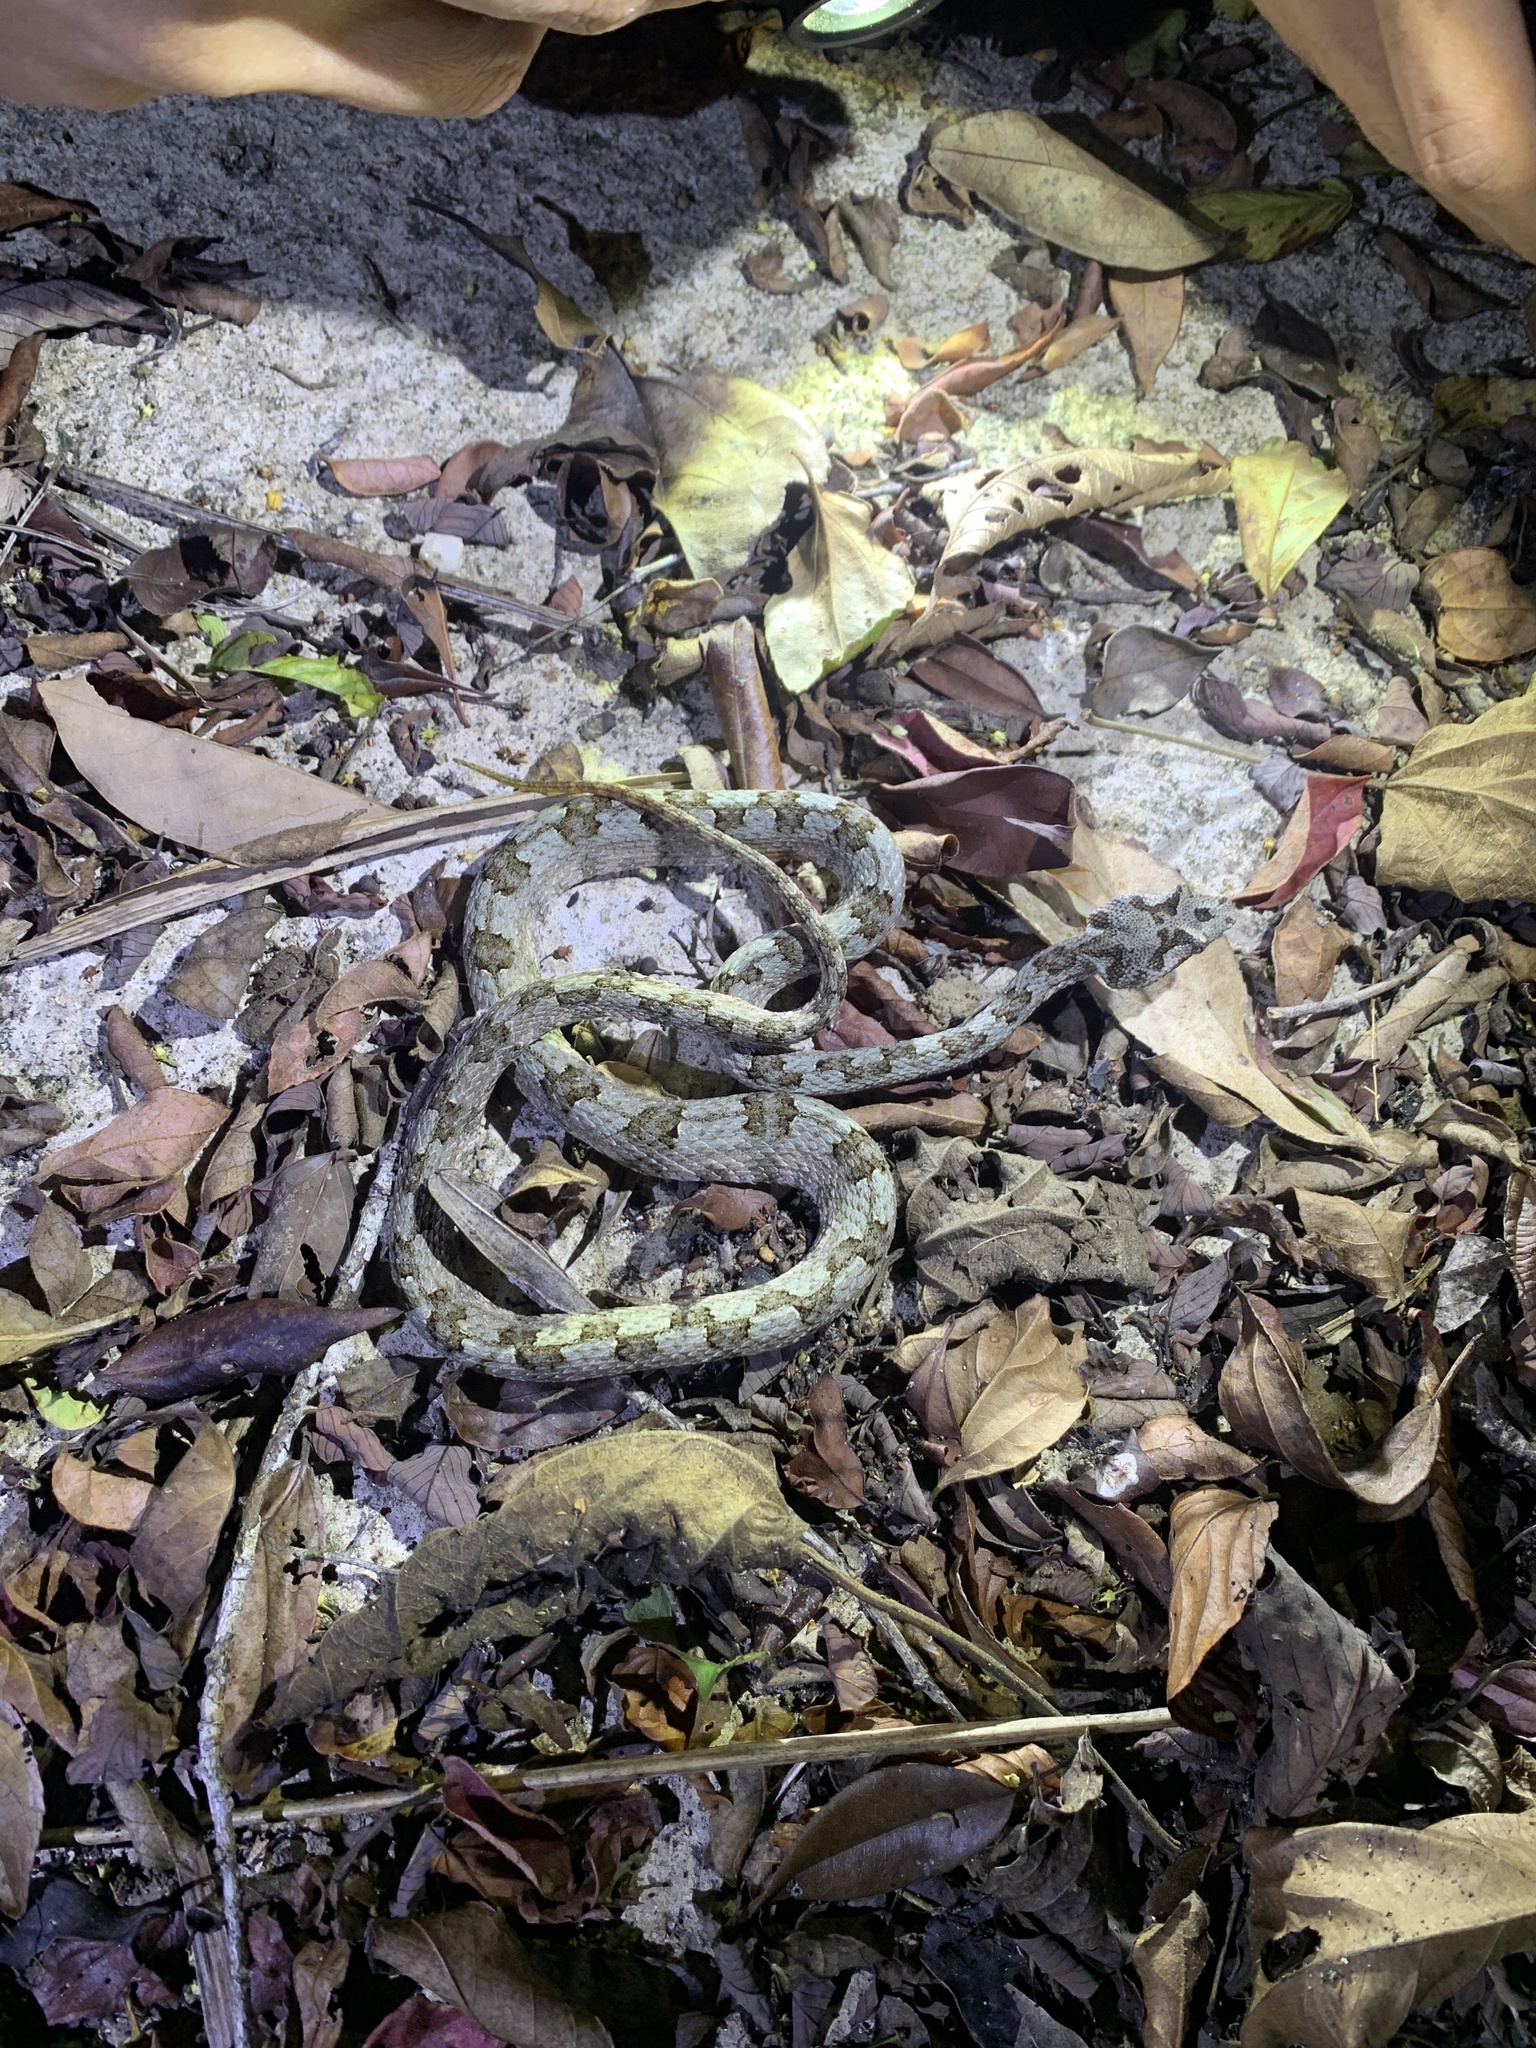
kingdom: Animalia
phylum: Chordata
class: Squamata
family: Viperidae
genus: Protobothrops
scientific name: Protobothrops cornutus
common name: Horned pit viper
